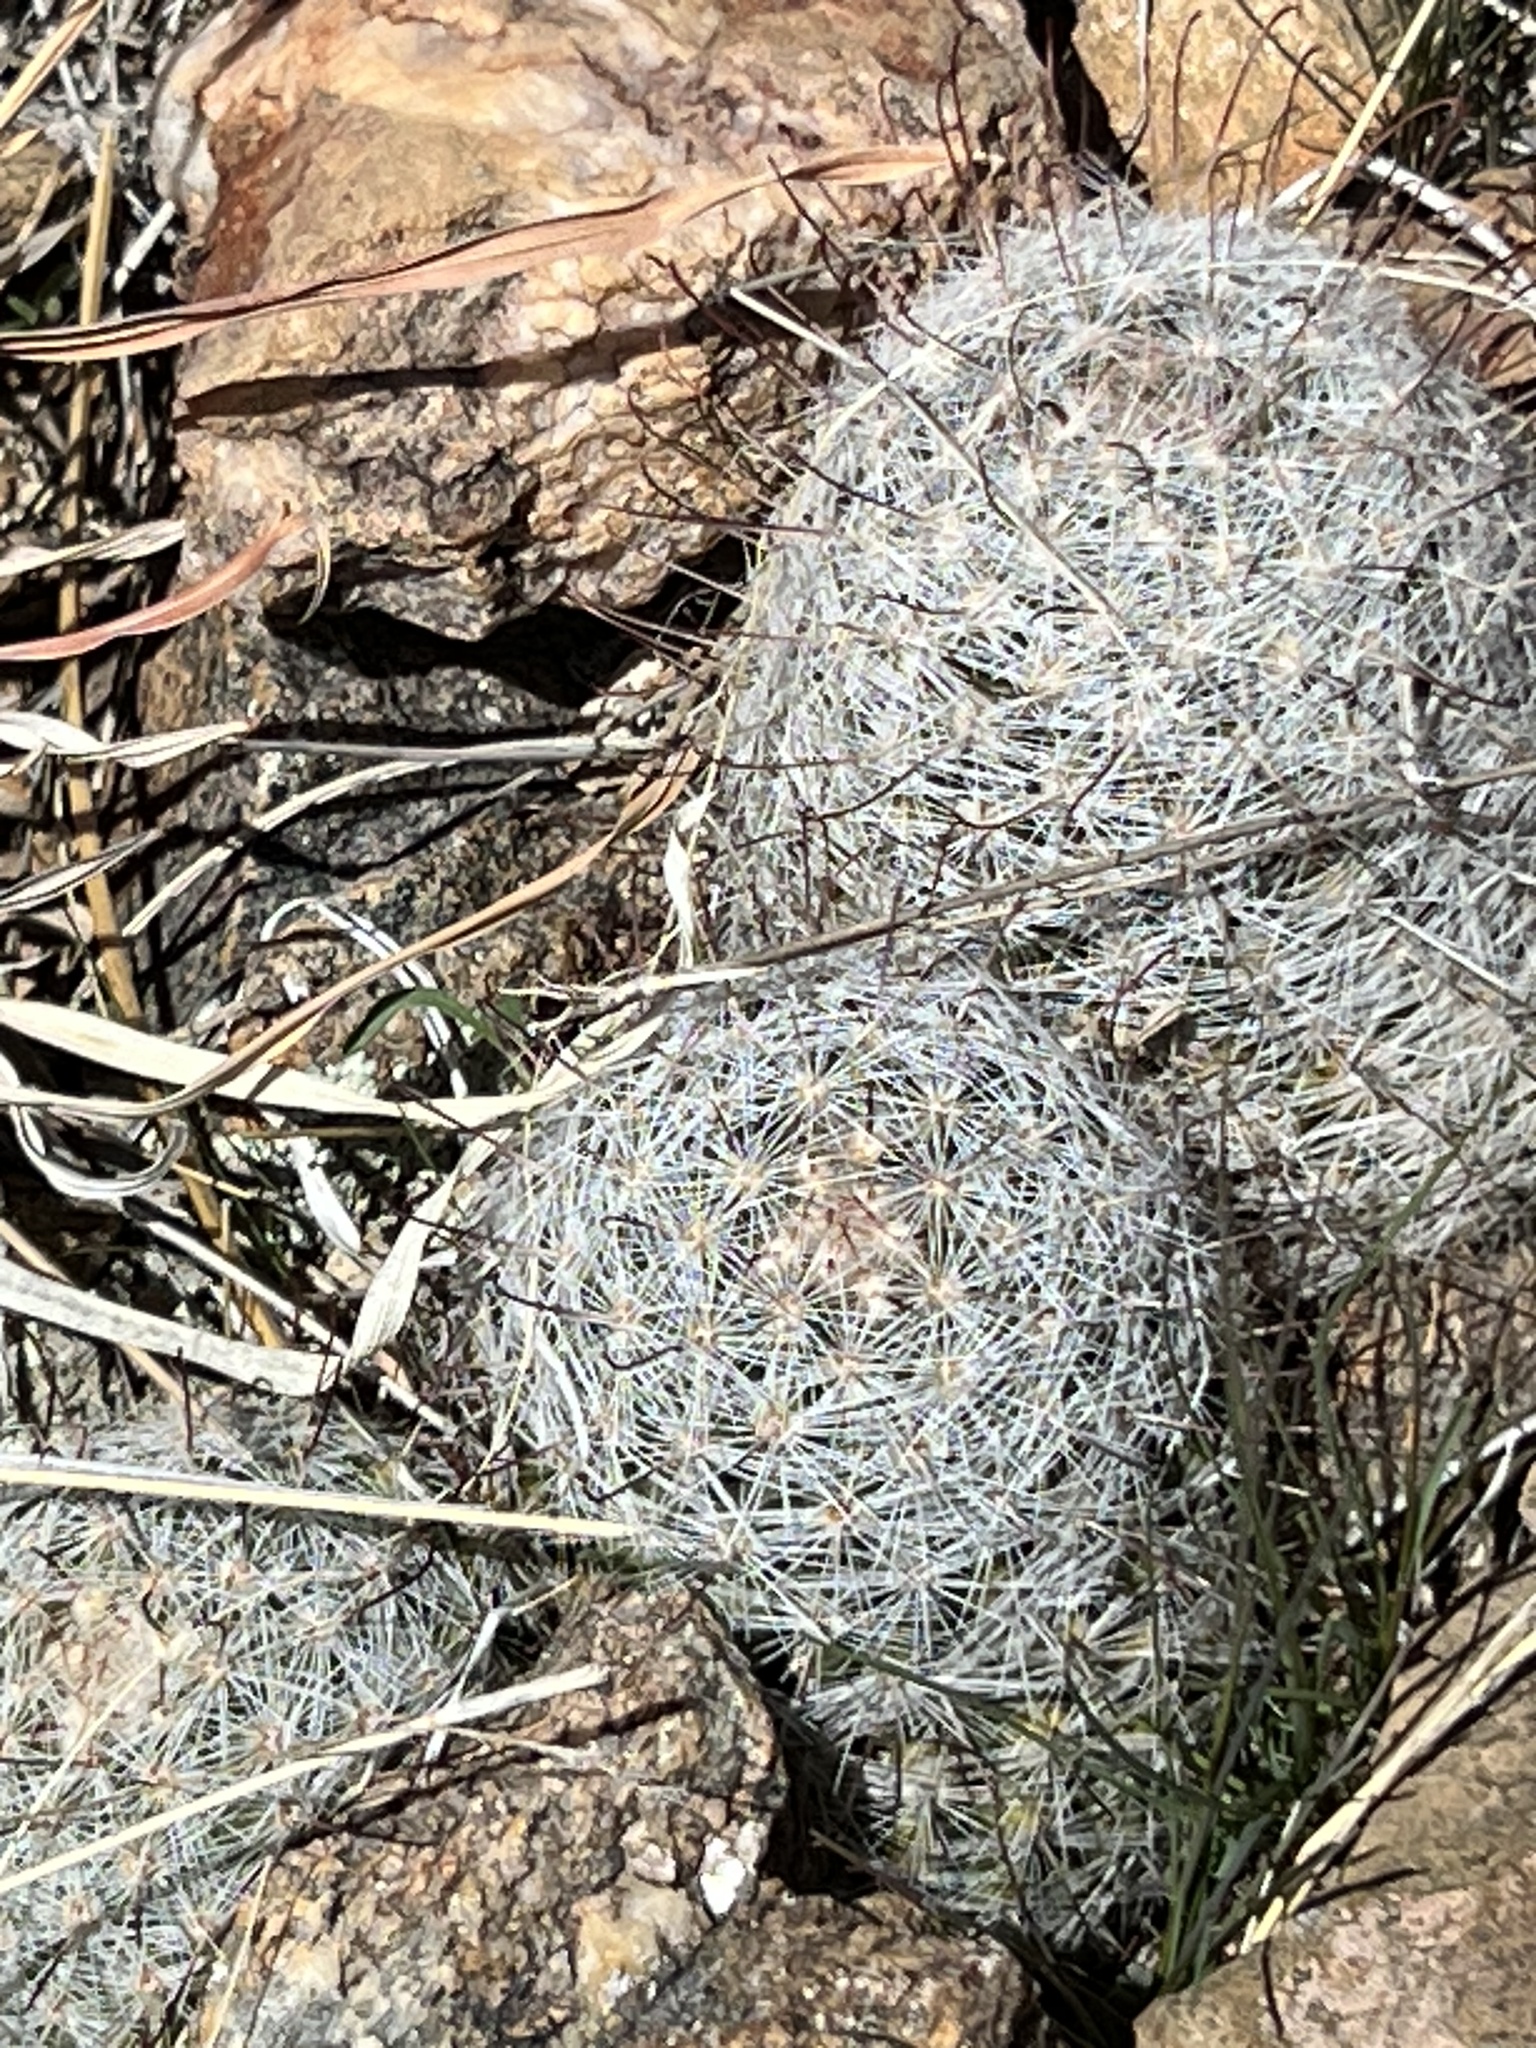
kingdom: Plantae
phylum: Tracheophyta
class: Magnoliopsida
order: Caryophyllales
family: Cactaceae
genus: Cochemiea
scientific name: Cochemiea grahamii
